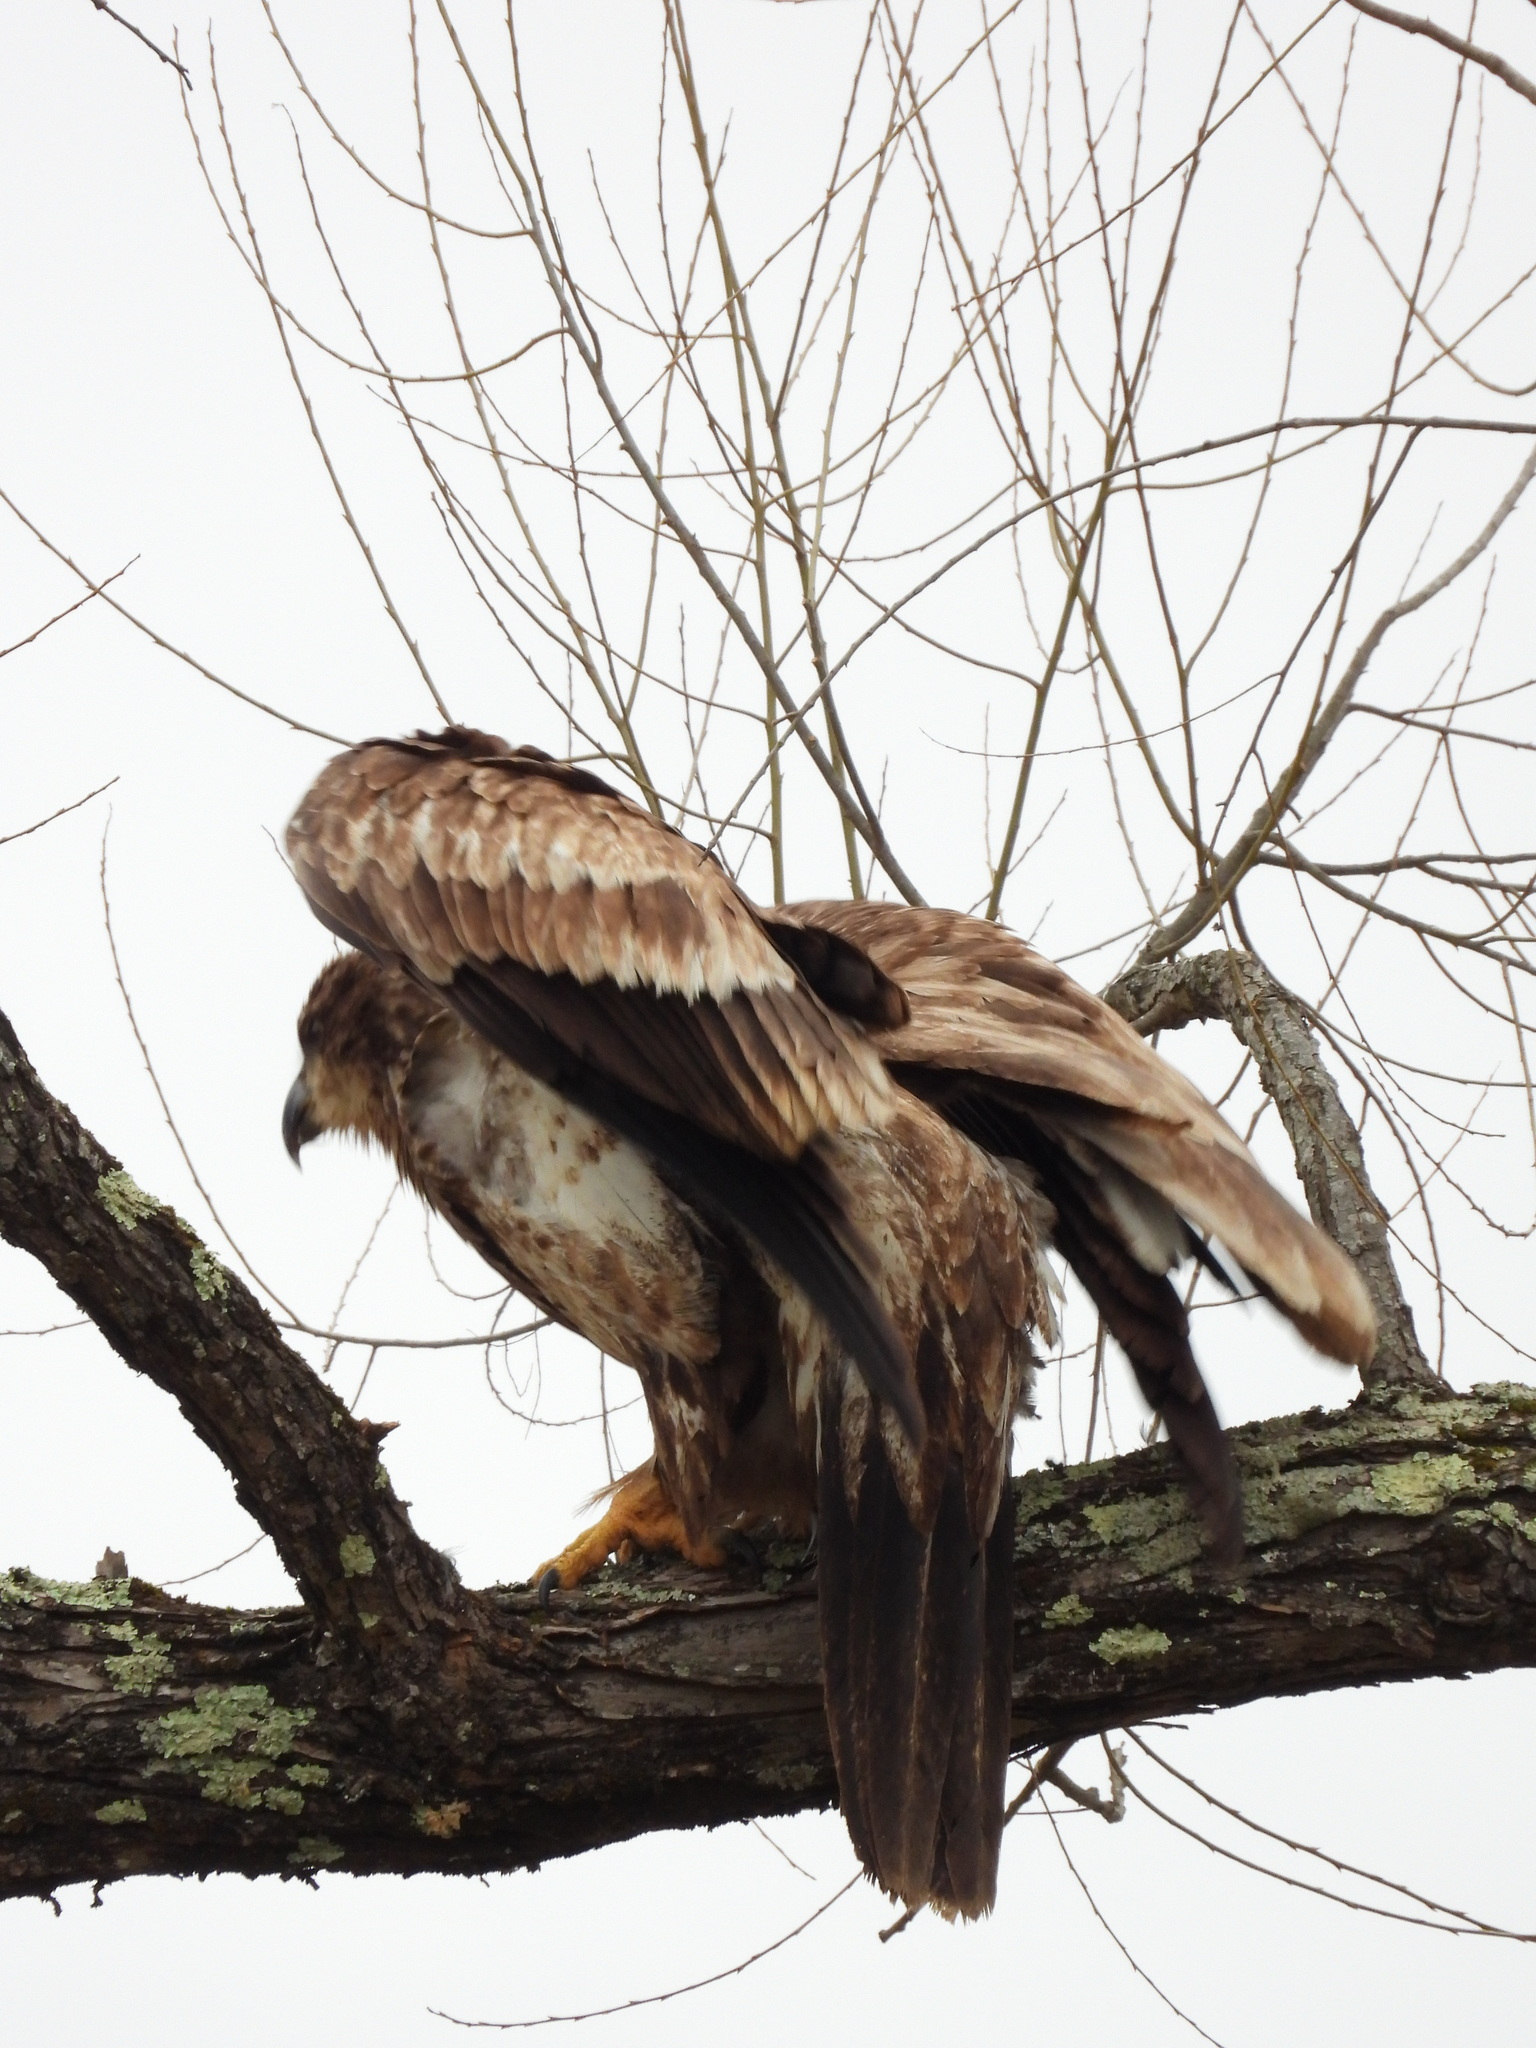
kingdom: Animalia
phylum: Chordata
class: Aves
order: Accipitriformes
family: Accipitridae
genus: Haliaeetus
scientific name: Haliaeetus leucocephalus
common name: Bald eagle
